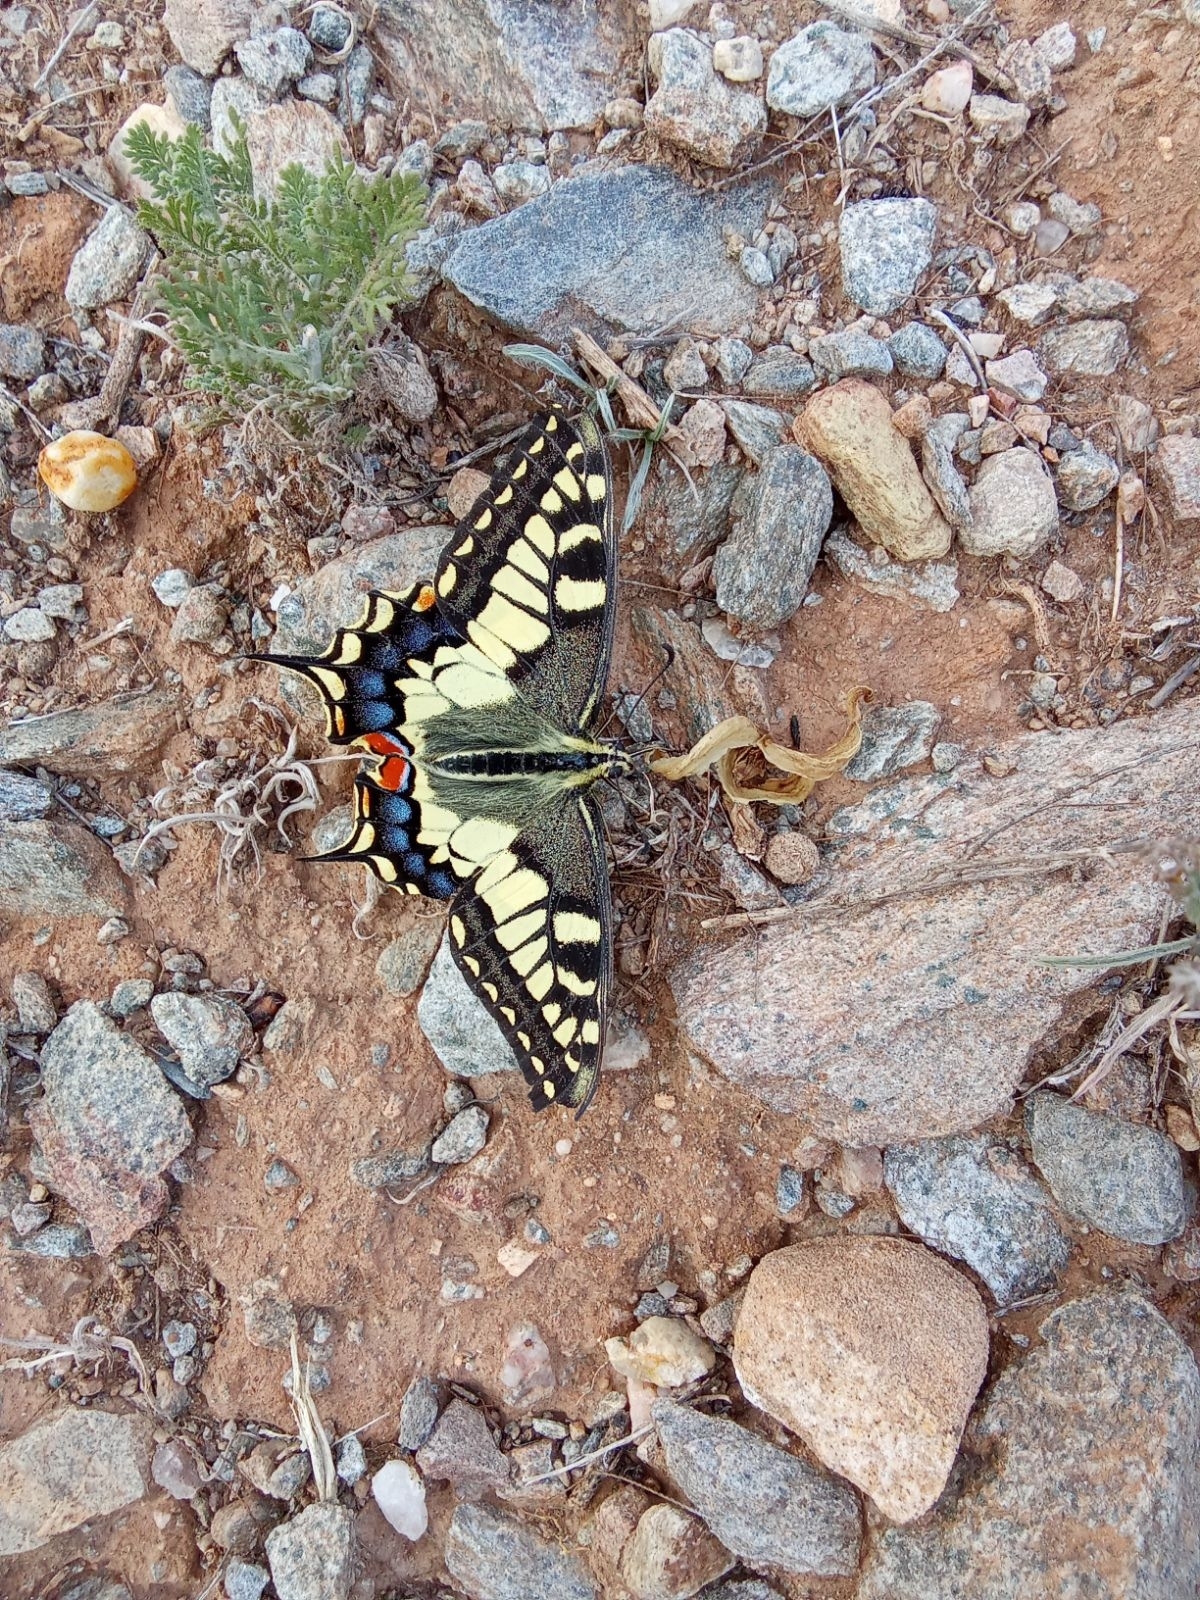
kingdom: Animalia
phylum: Arthropoda
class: Insecta
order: Lepidoptera
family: Papilionidae
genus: Papilio
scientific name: Papilio machaon
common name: Swallowtail
